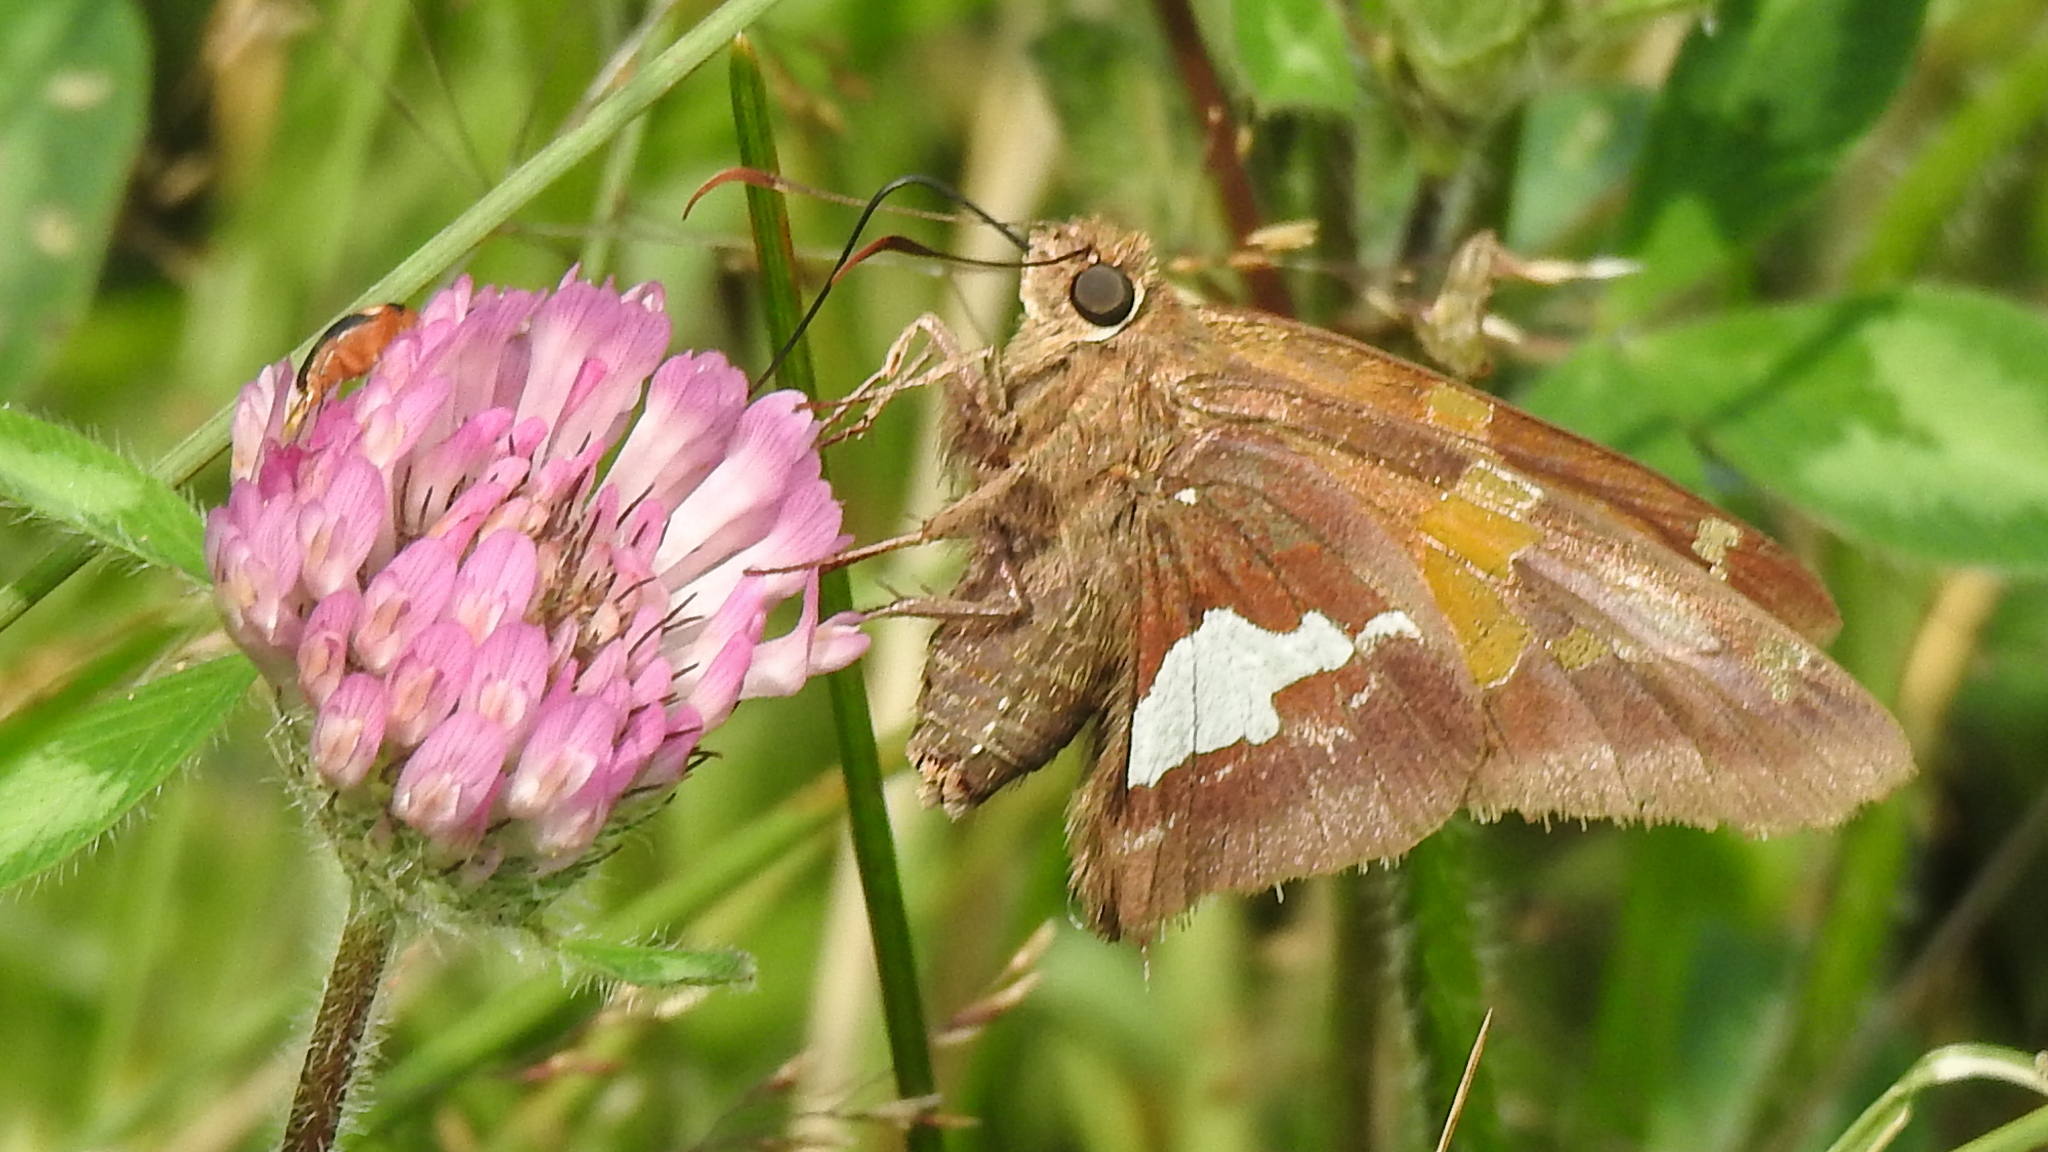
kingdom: Animalia
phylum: Arthropoda
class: Insecta
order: Lepidoptera
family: Hesperiidae
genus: Epargyreus
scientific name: Epargyreus clarus
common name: Silver-spotted skipper
